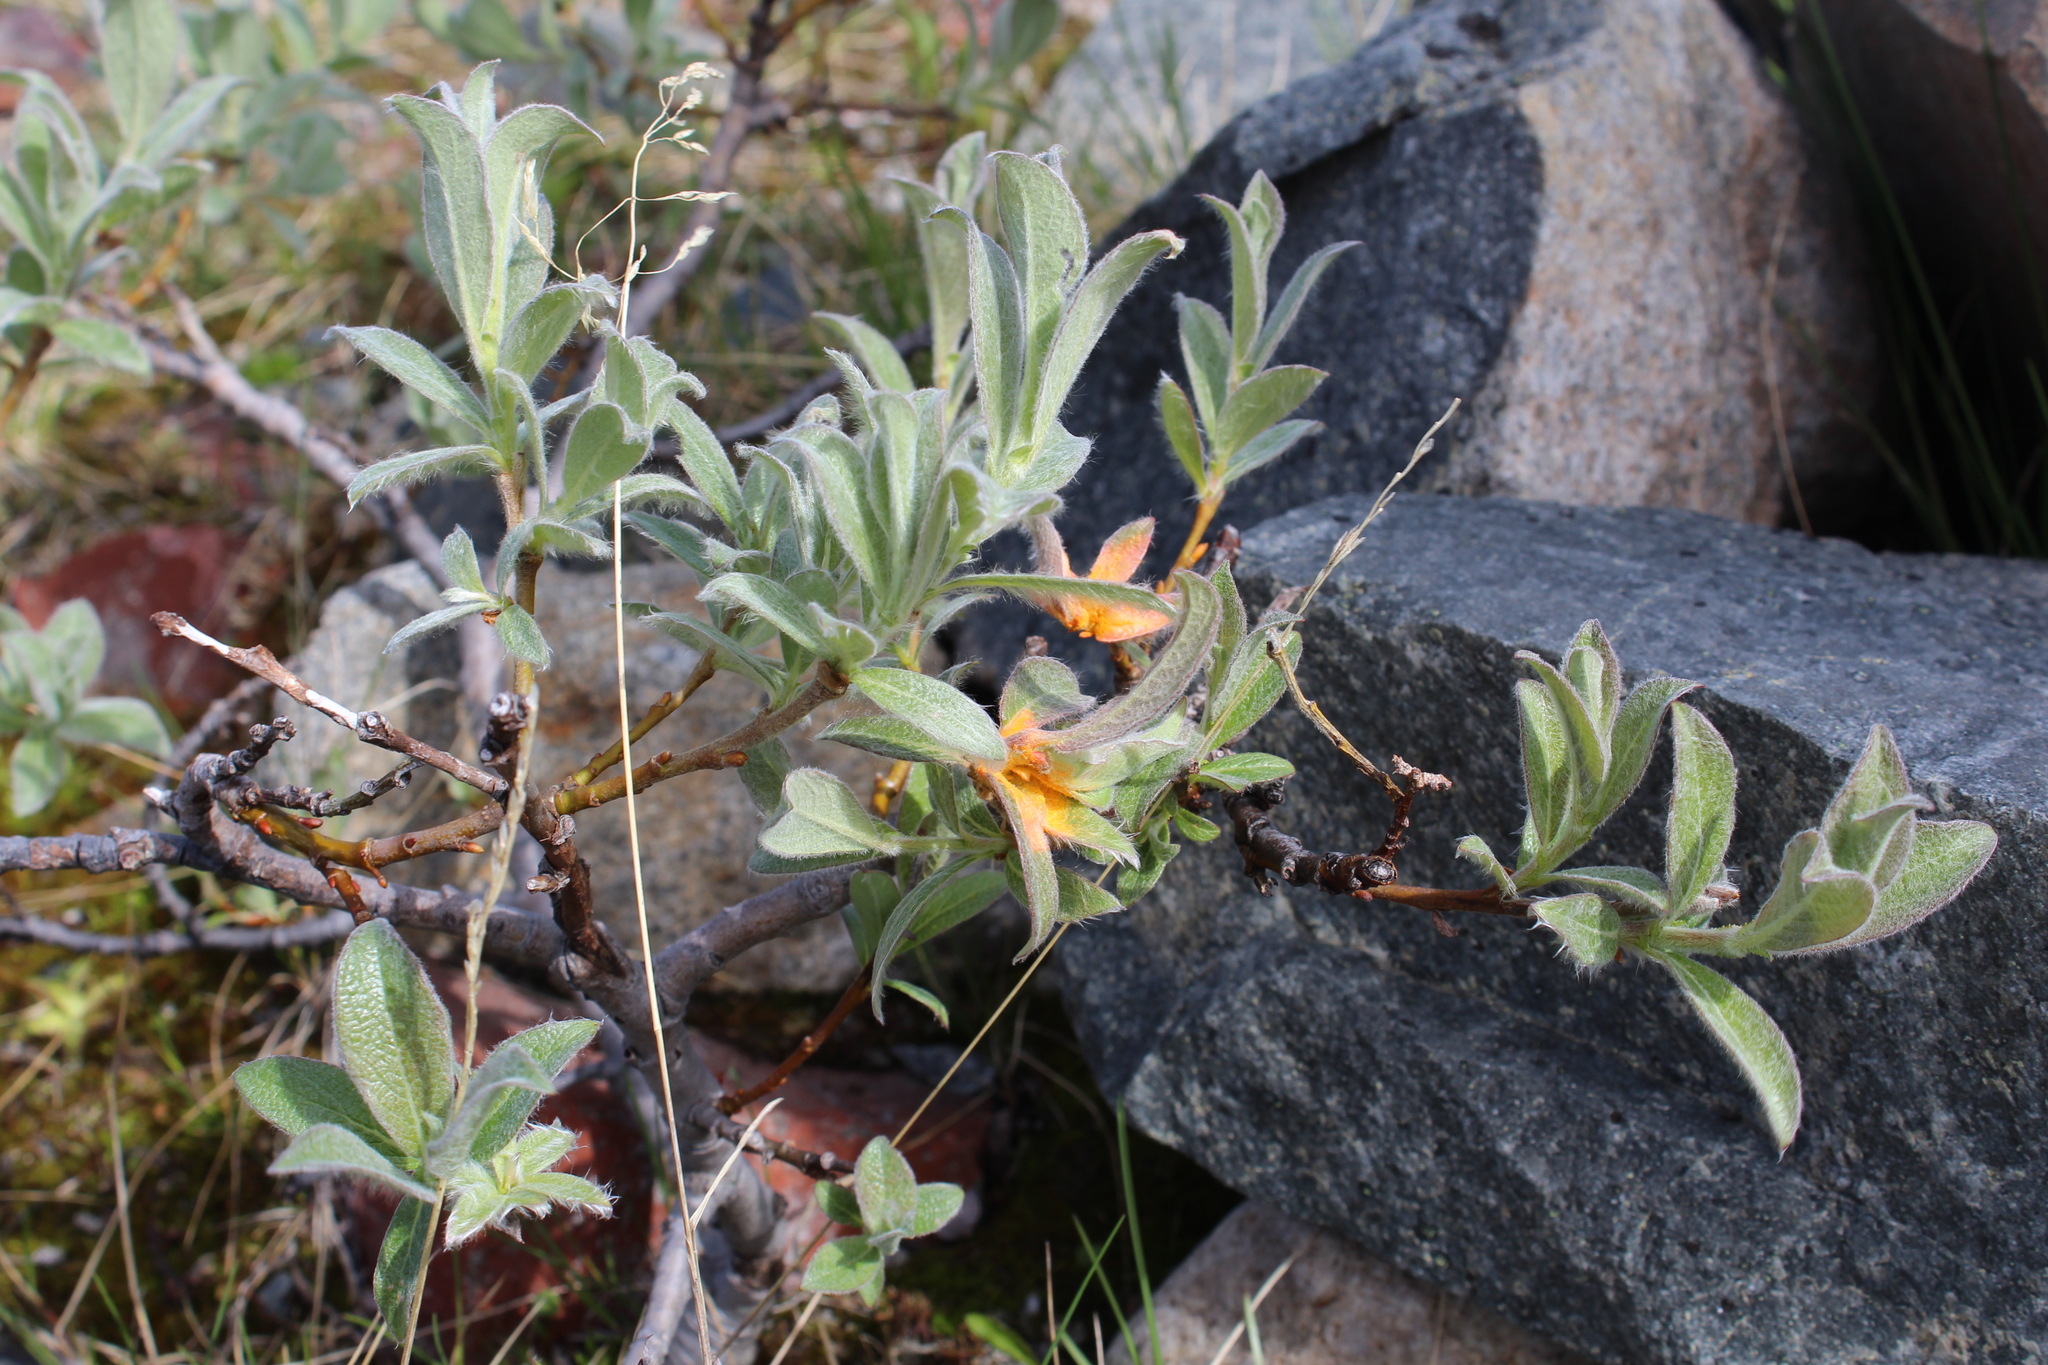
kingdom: Plantae
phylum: Tracheophyta
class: Magnoliopsida
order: Malpighiales
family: Salicaceae
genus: Salix
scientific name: Salix lapponum
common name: Downy willow
